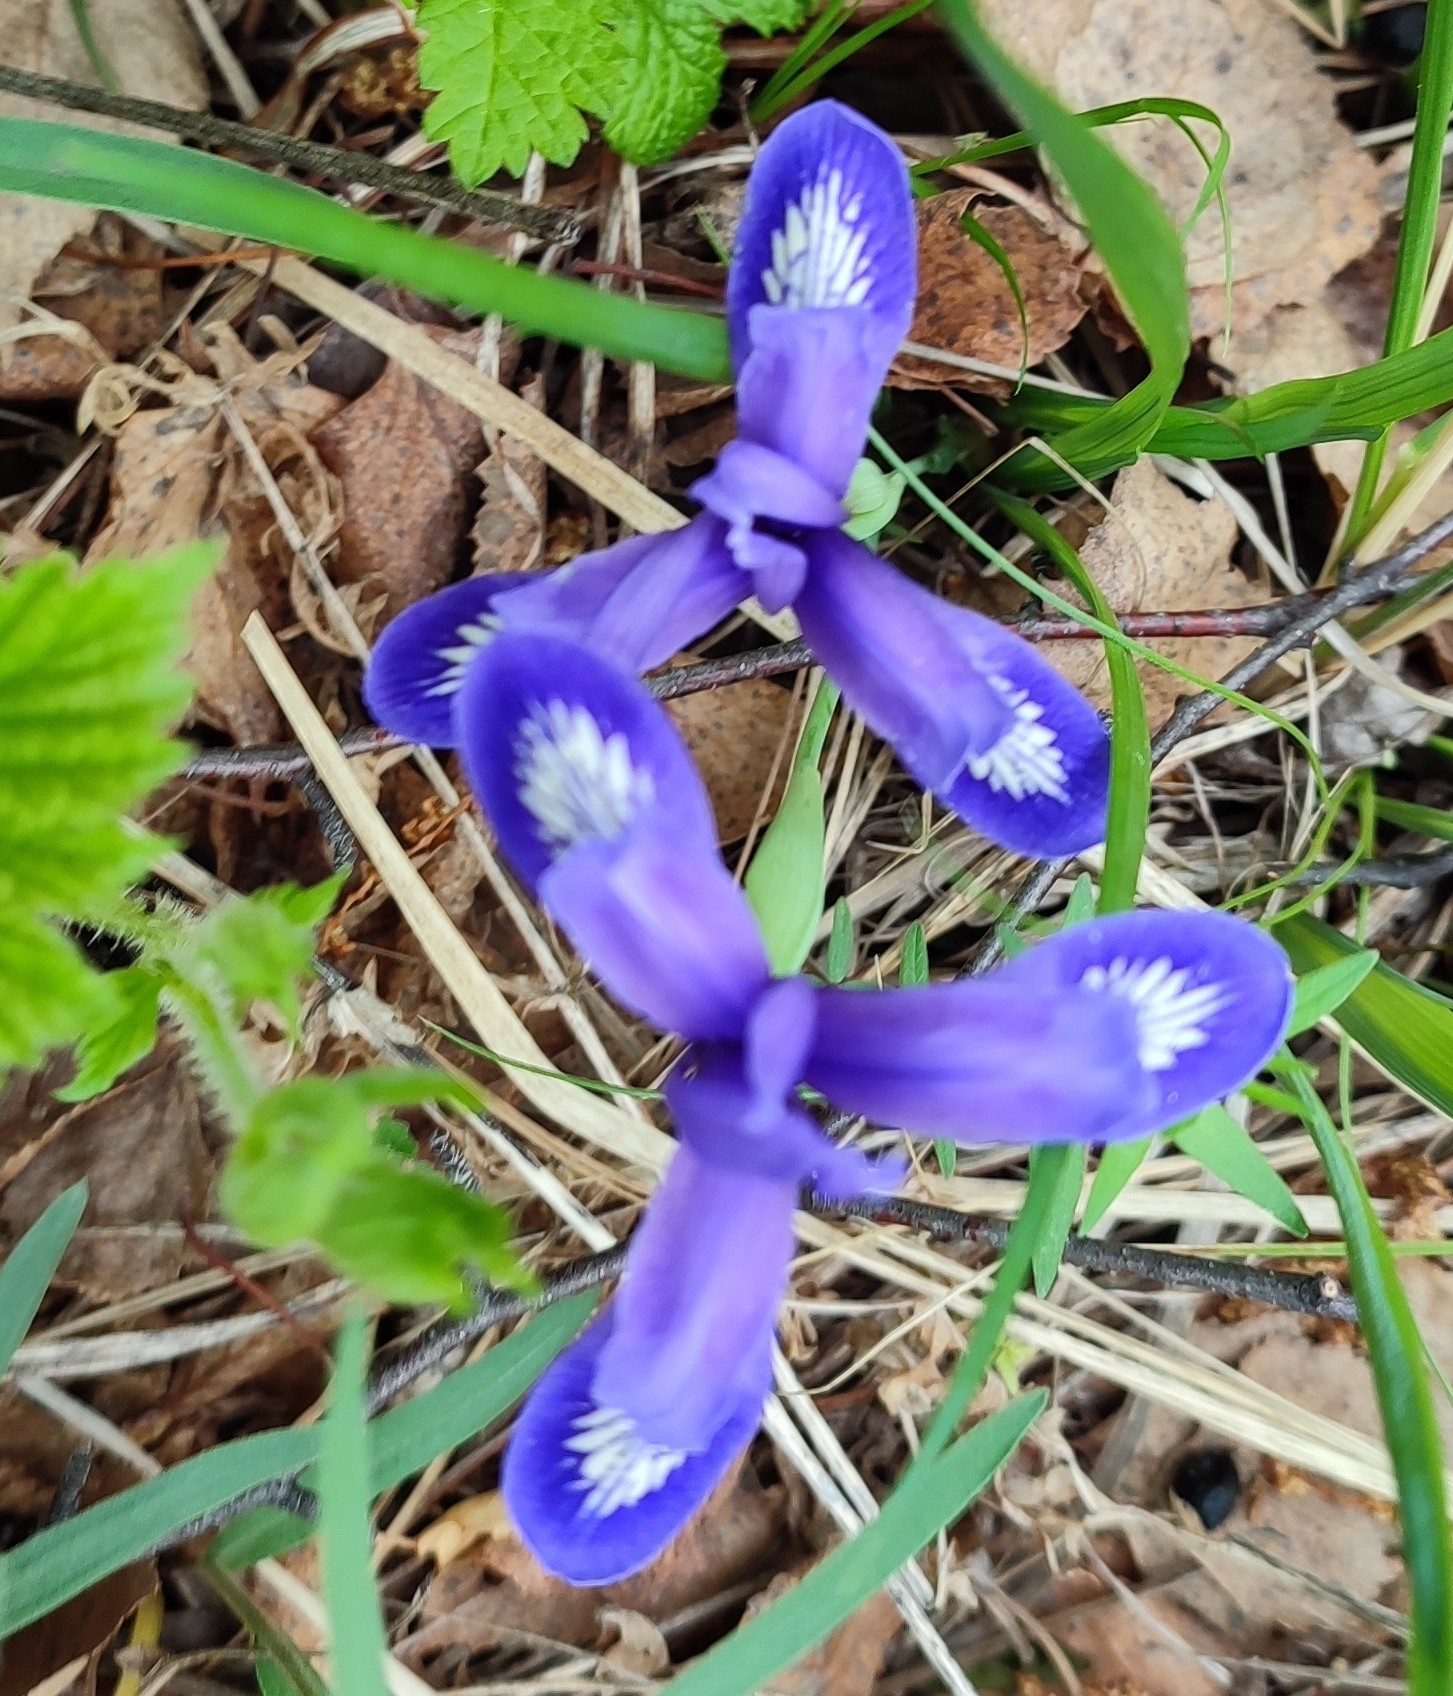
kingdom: Plantae
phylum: Tracheophyta
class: Liliopsida
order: Asparagales
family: Iridaceae
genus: Iris
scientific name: Iris ruthenica
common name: Purple-bract iris
